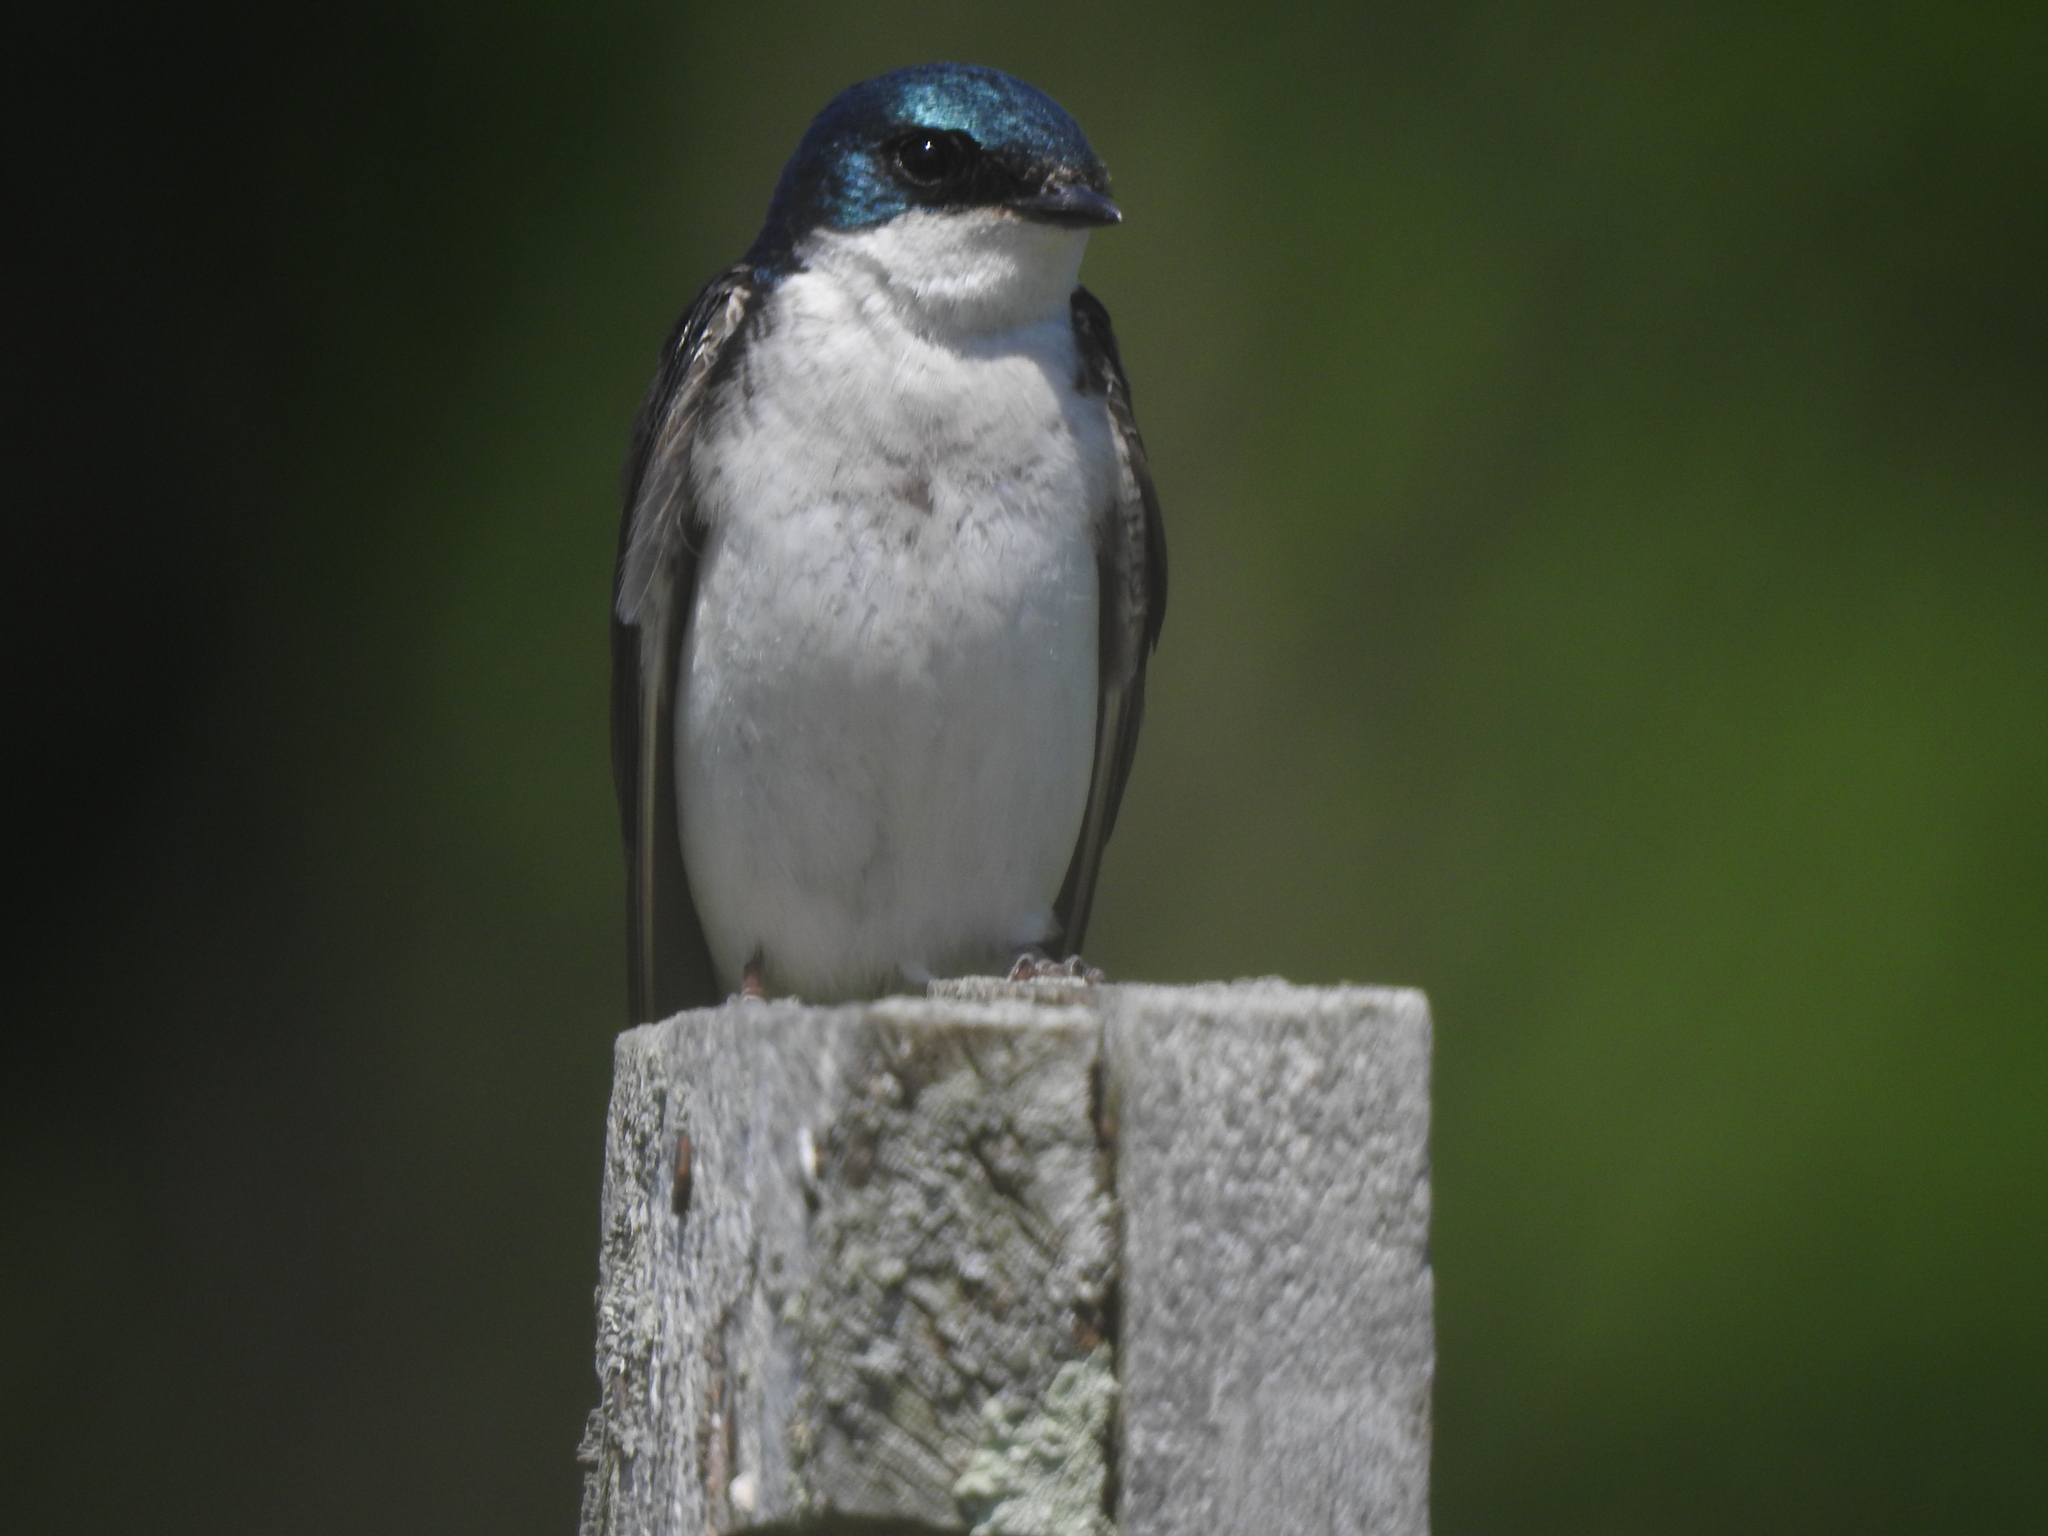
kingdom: Animalia
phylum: Chordata
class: Aves
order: Passeriformes
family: Hirundinidae
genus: Tachycineta
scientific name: Tachycineta bicolor
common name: Tree swallow
